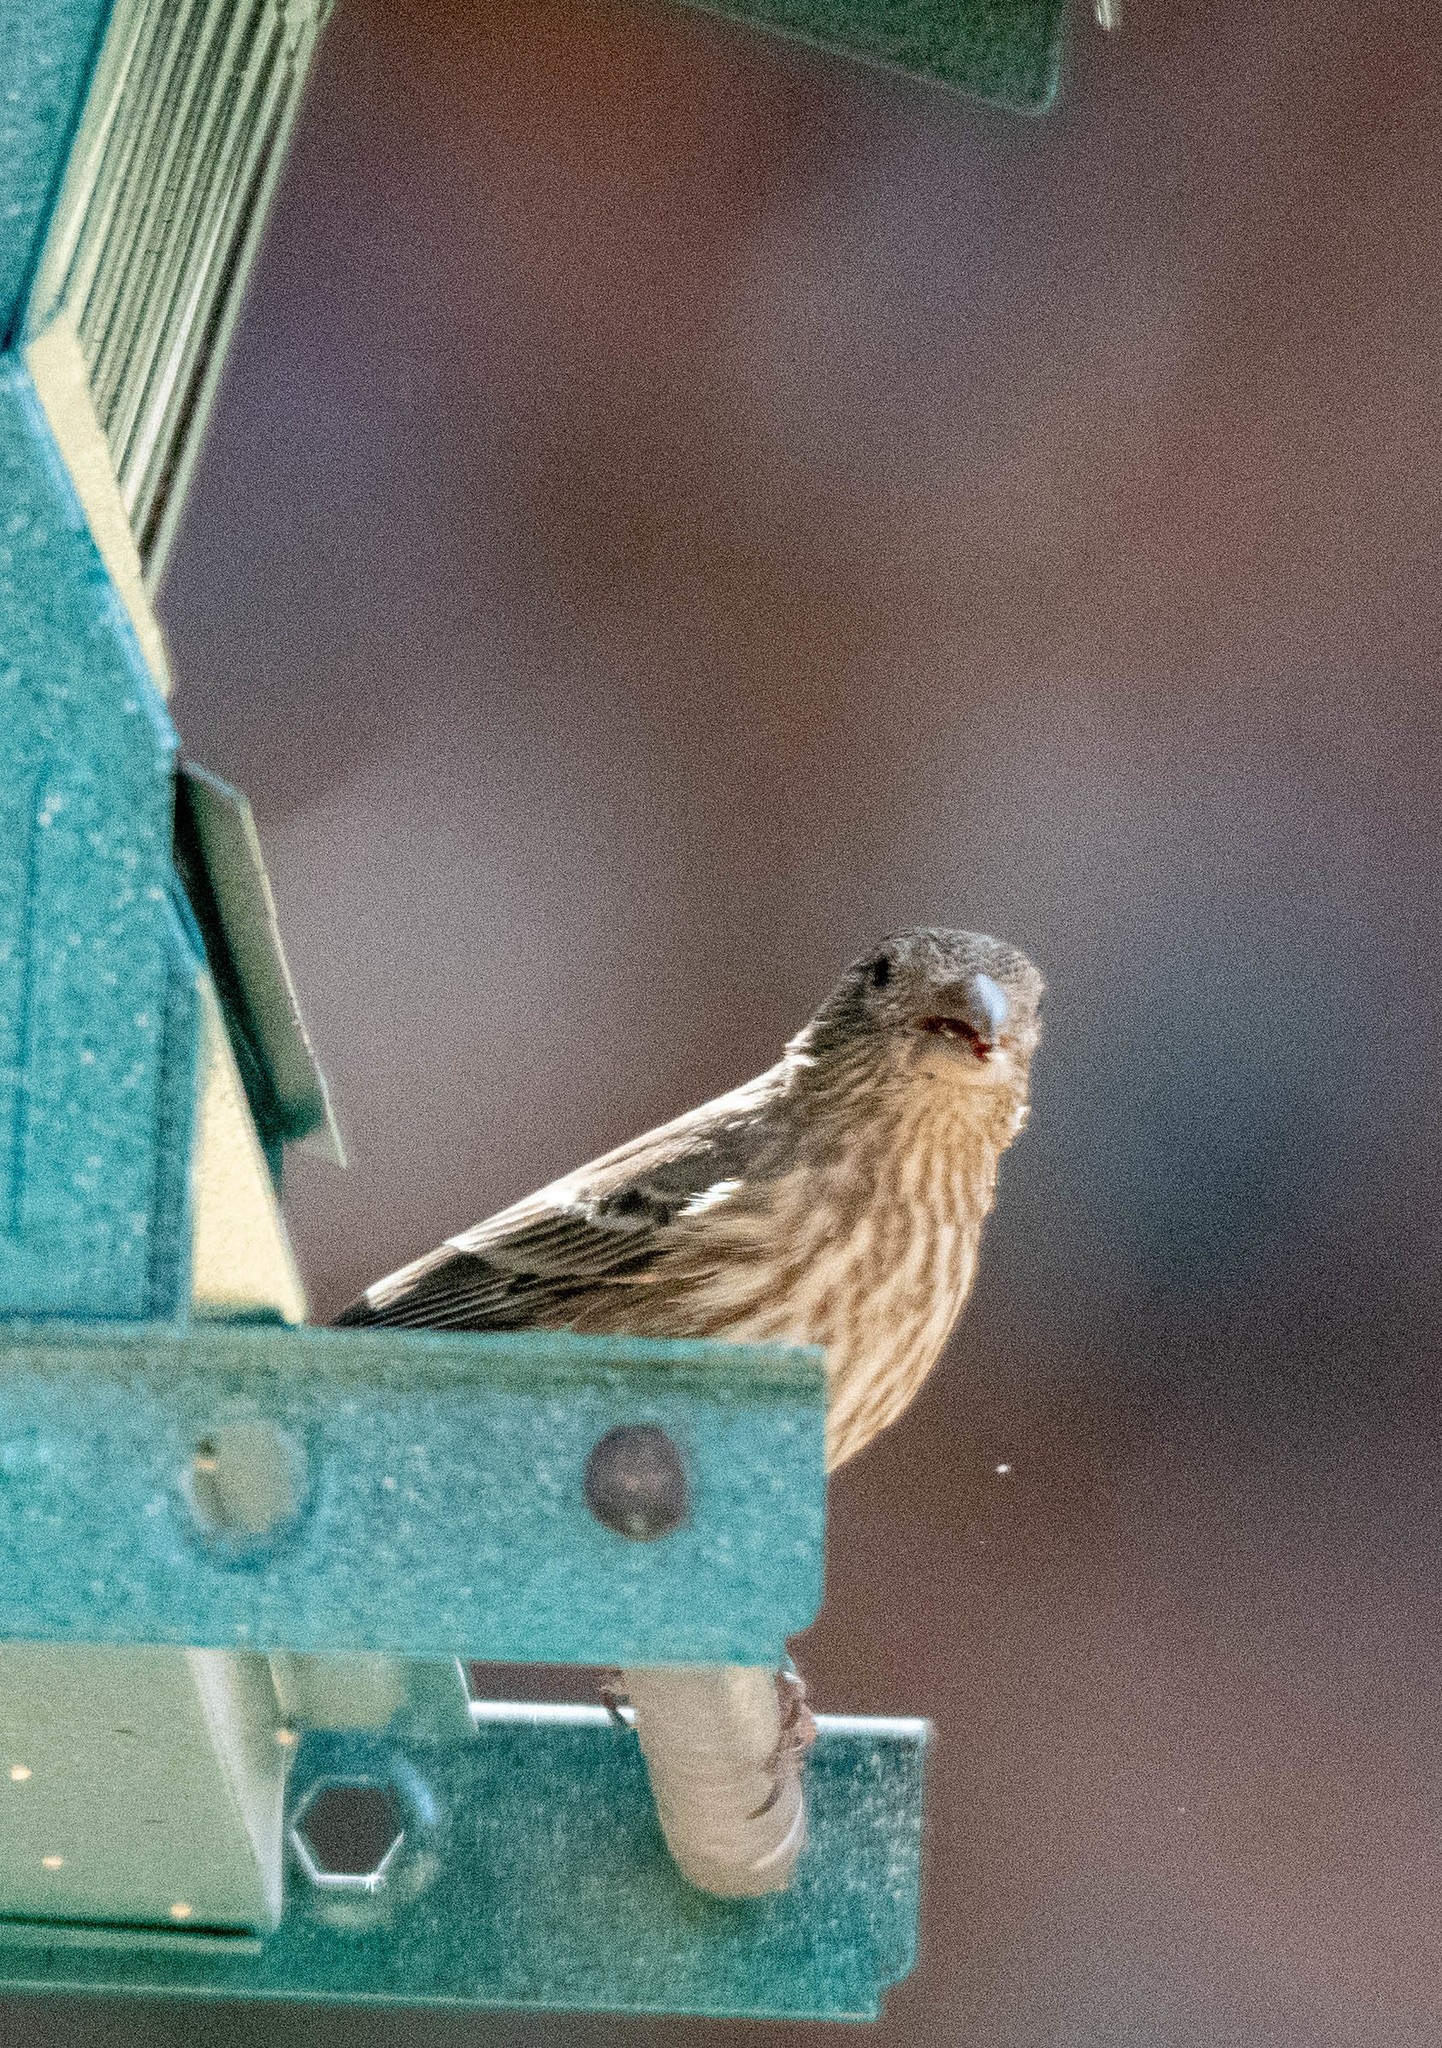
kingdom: Animalia
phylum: Chordata
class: Aves
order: Passeriformes
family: Fringillidae
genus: Haemorhous
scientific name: Haemorhous mexicanus
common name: House finch
